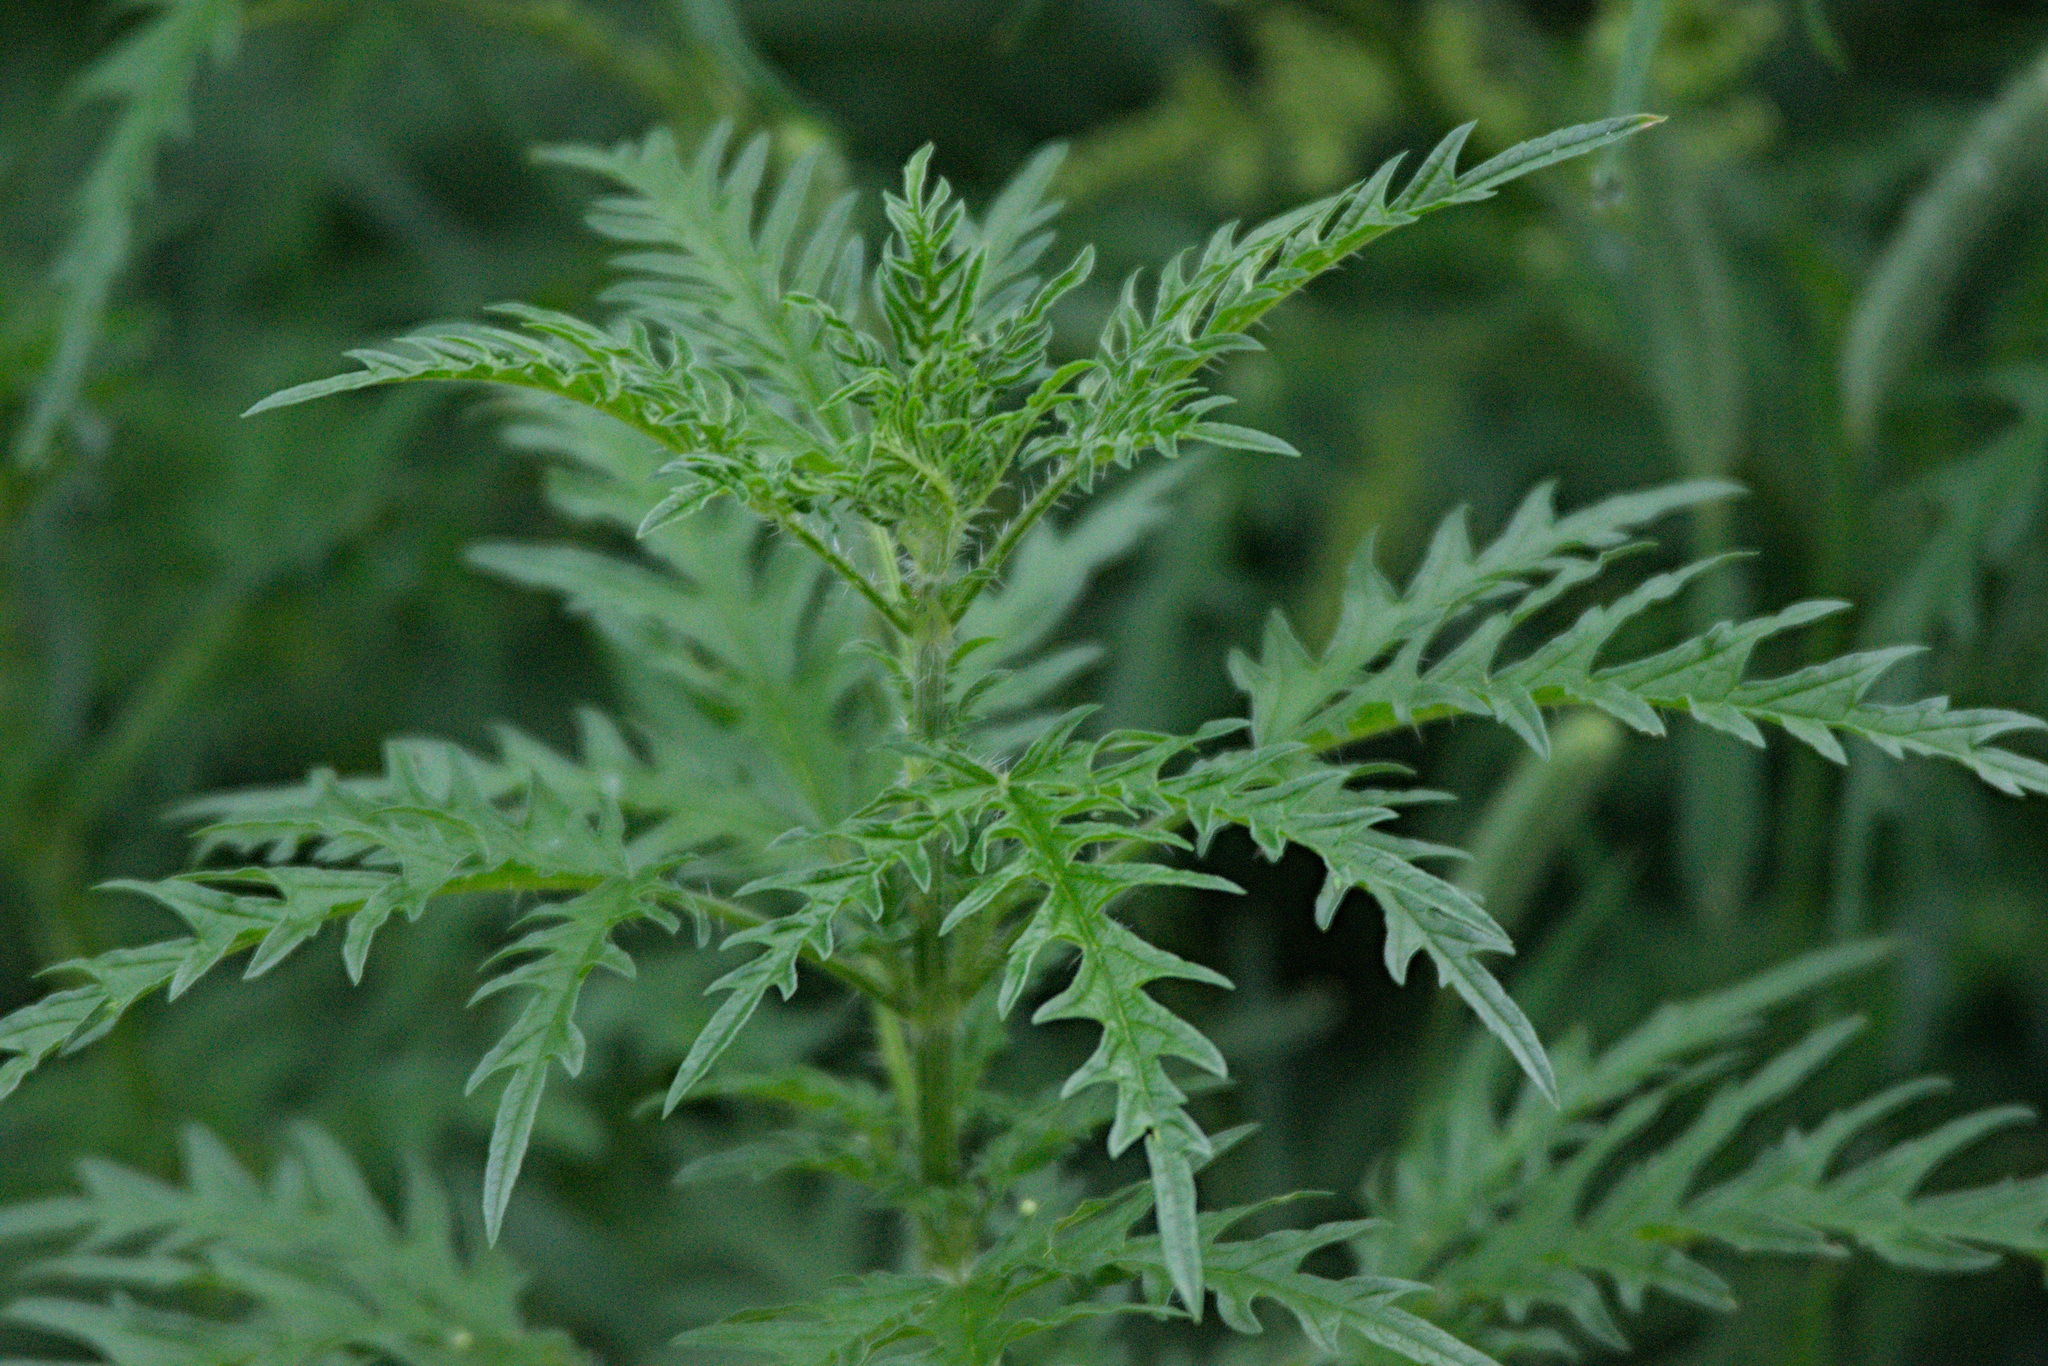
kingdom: Plantae
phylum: Tracheophyta
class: Magnoliopsida
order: Rosales
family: Urticaceae
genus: Urtica
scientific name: Urtica cannabina
